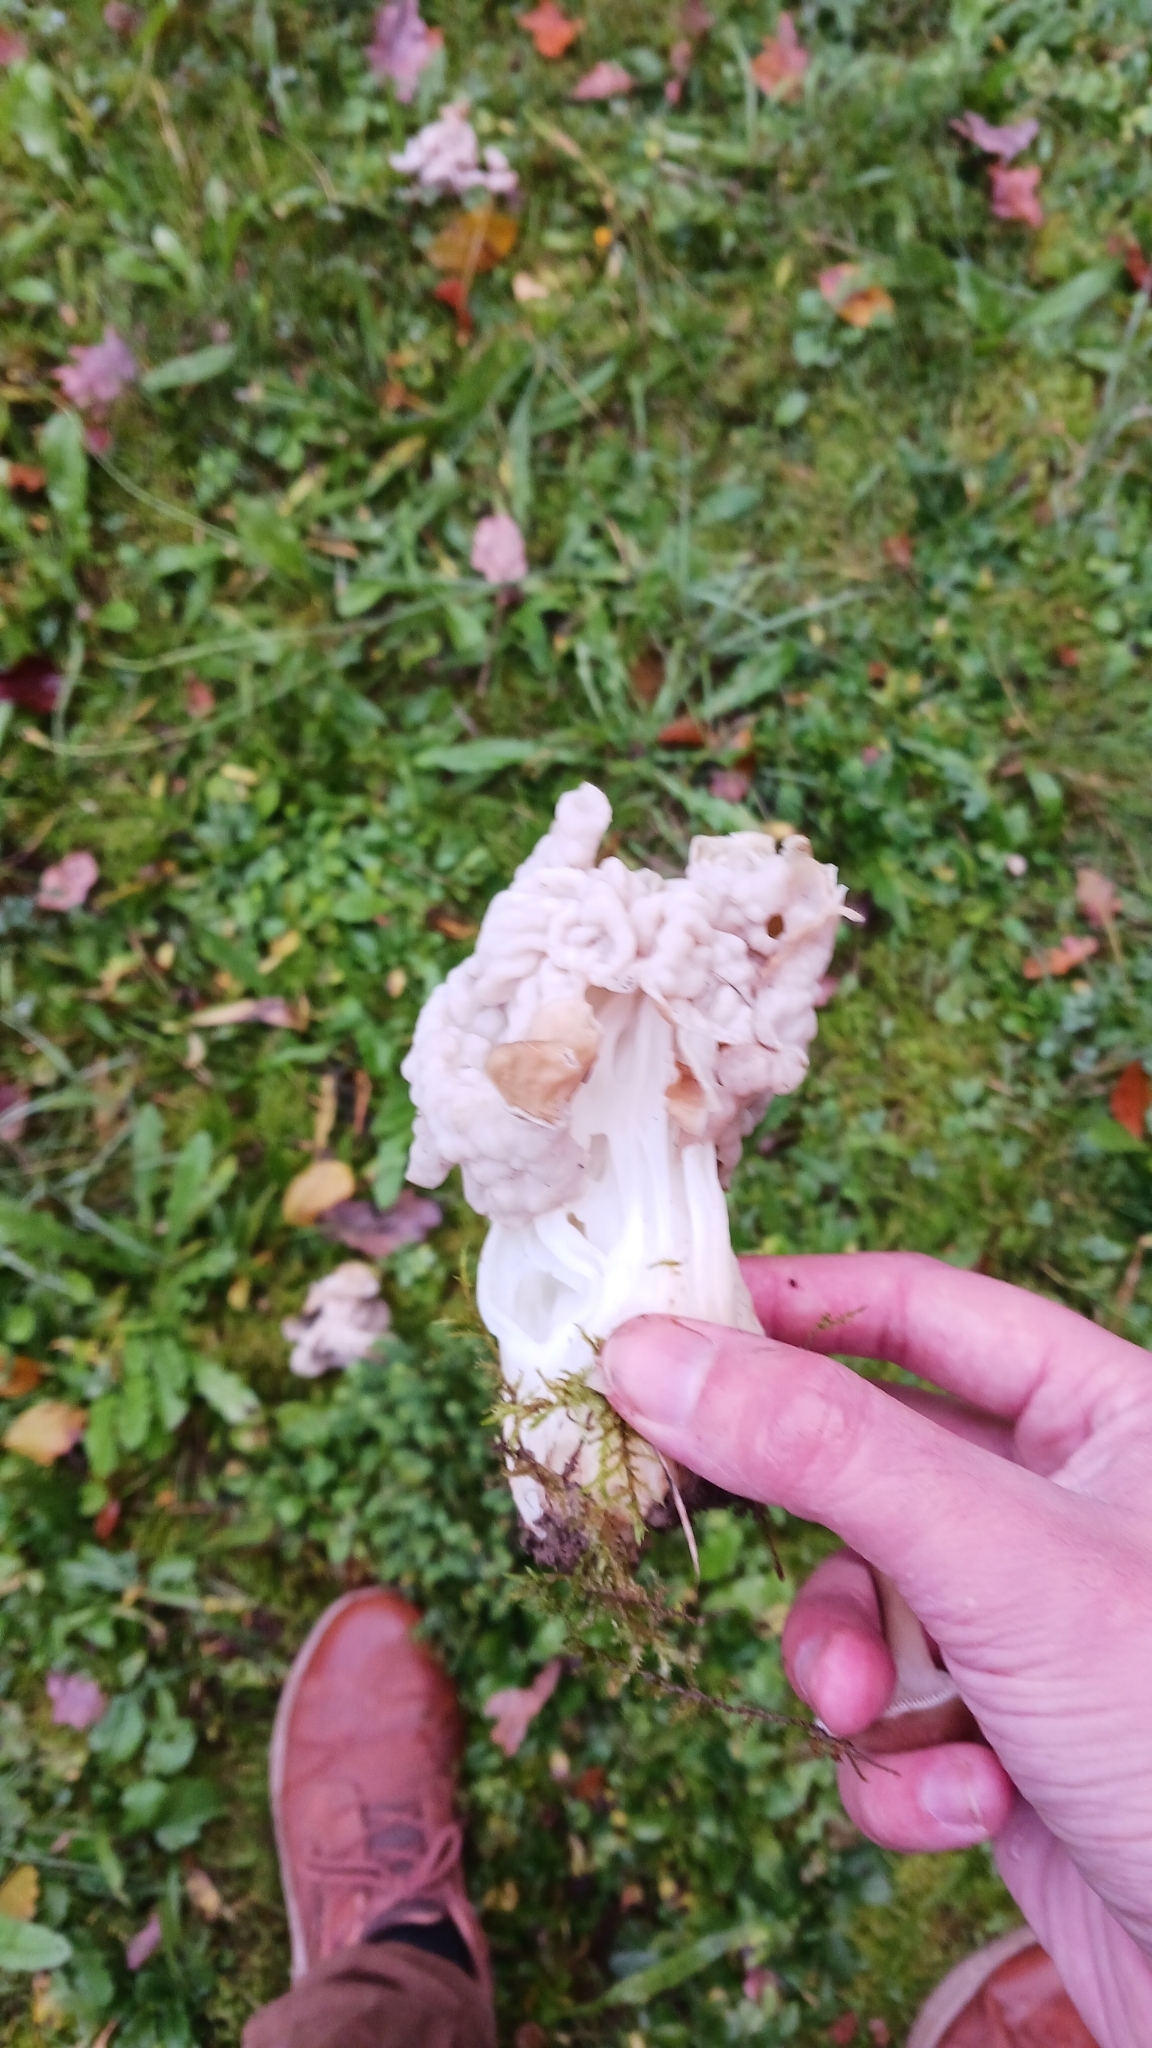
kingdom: Fungi
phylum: Ascomycota
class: Pezizomycetes
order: Pezizales
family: Helvellaceae
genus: Helvella
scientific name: Helvella crispa
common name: White saddle
